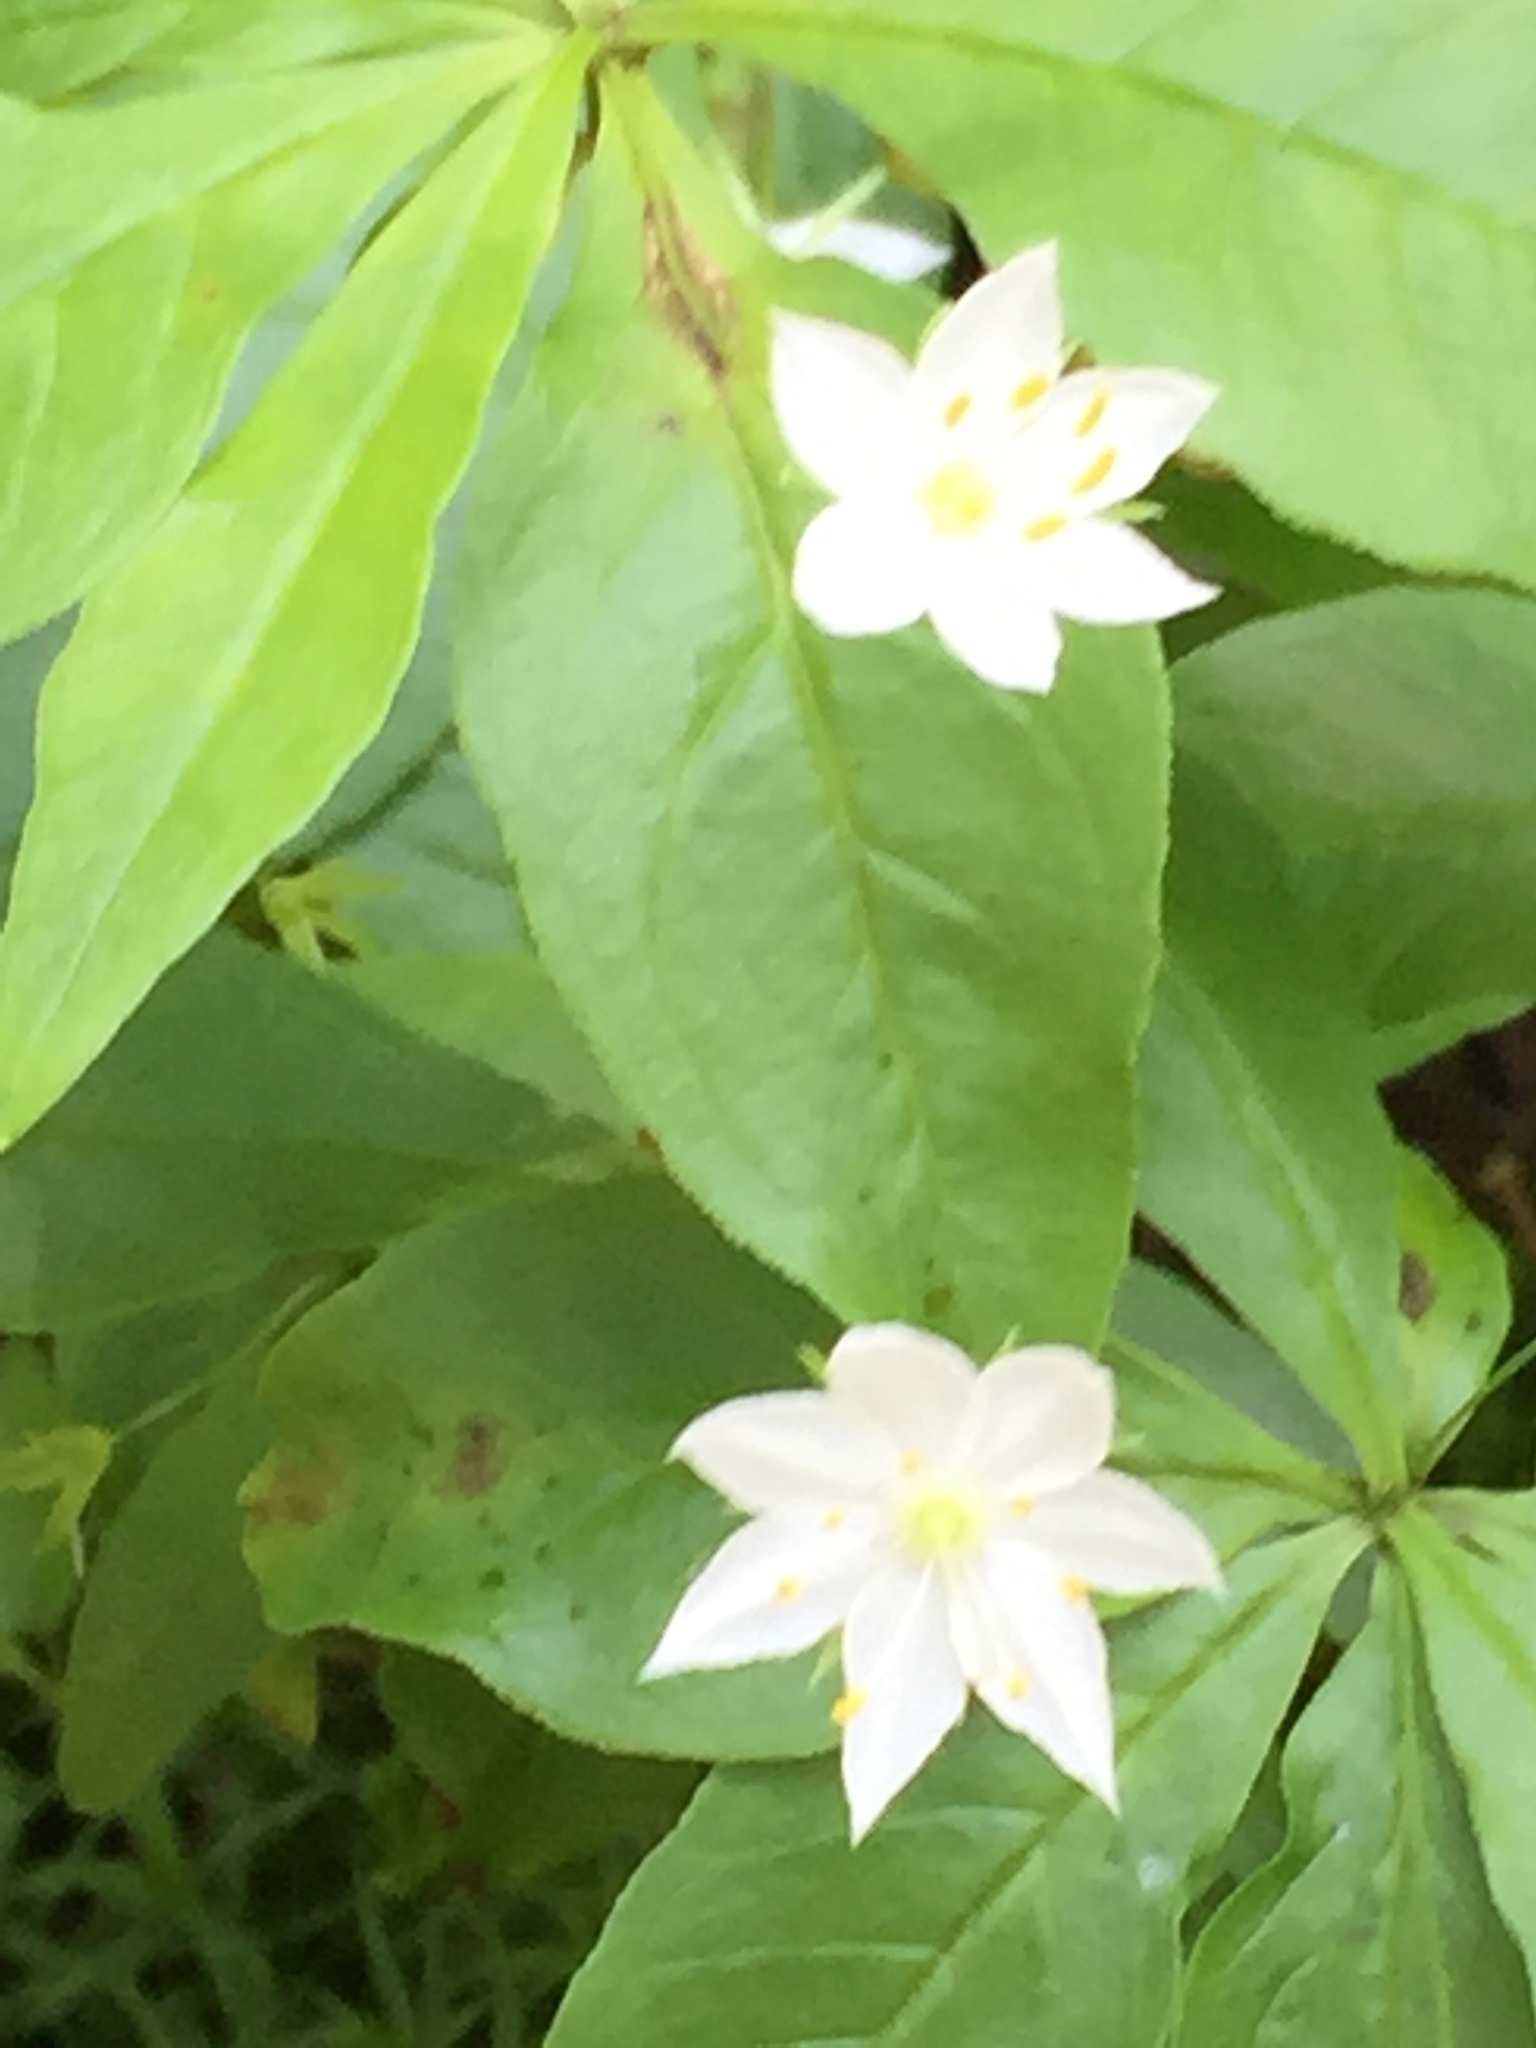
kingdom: Plantae
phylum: Tracheophyta
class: Magnoliopsida
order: Ericales
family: Primulaceae
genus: Lysimachia
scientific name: Lysimachia borealis
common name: American starflower
